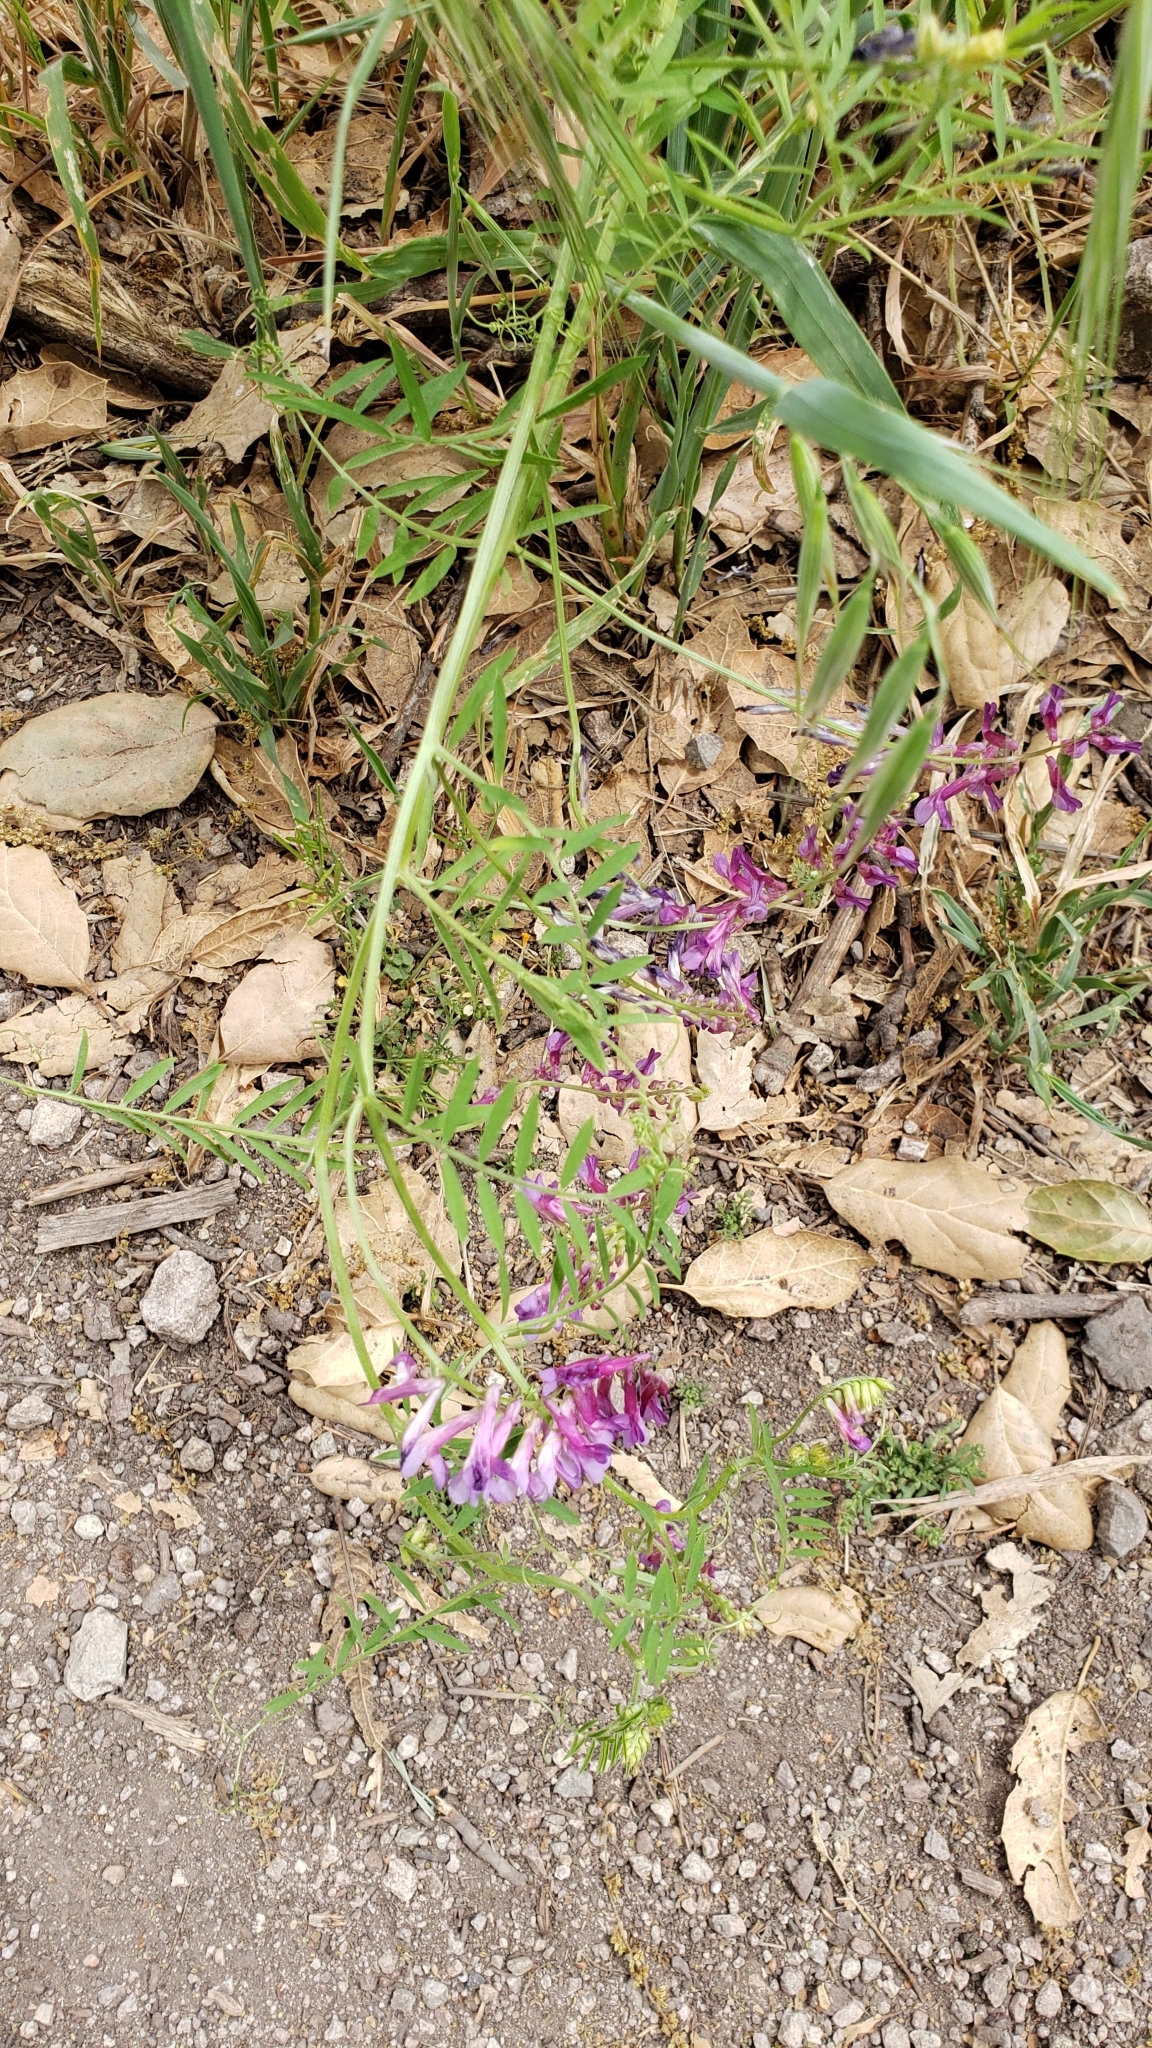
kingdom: Plantae
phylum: Tracheophyta
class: Magnoliopsida
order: Fabales
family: Fabaceae
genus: Vicia
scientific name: Vicia villosa
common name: Fodder vetch
